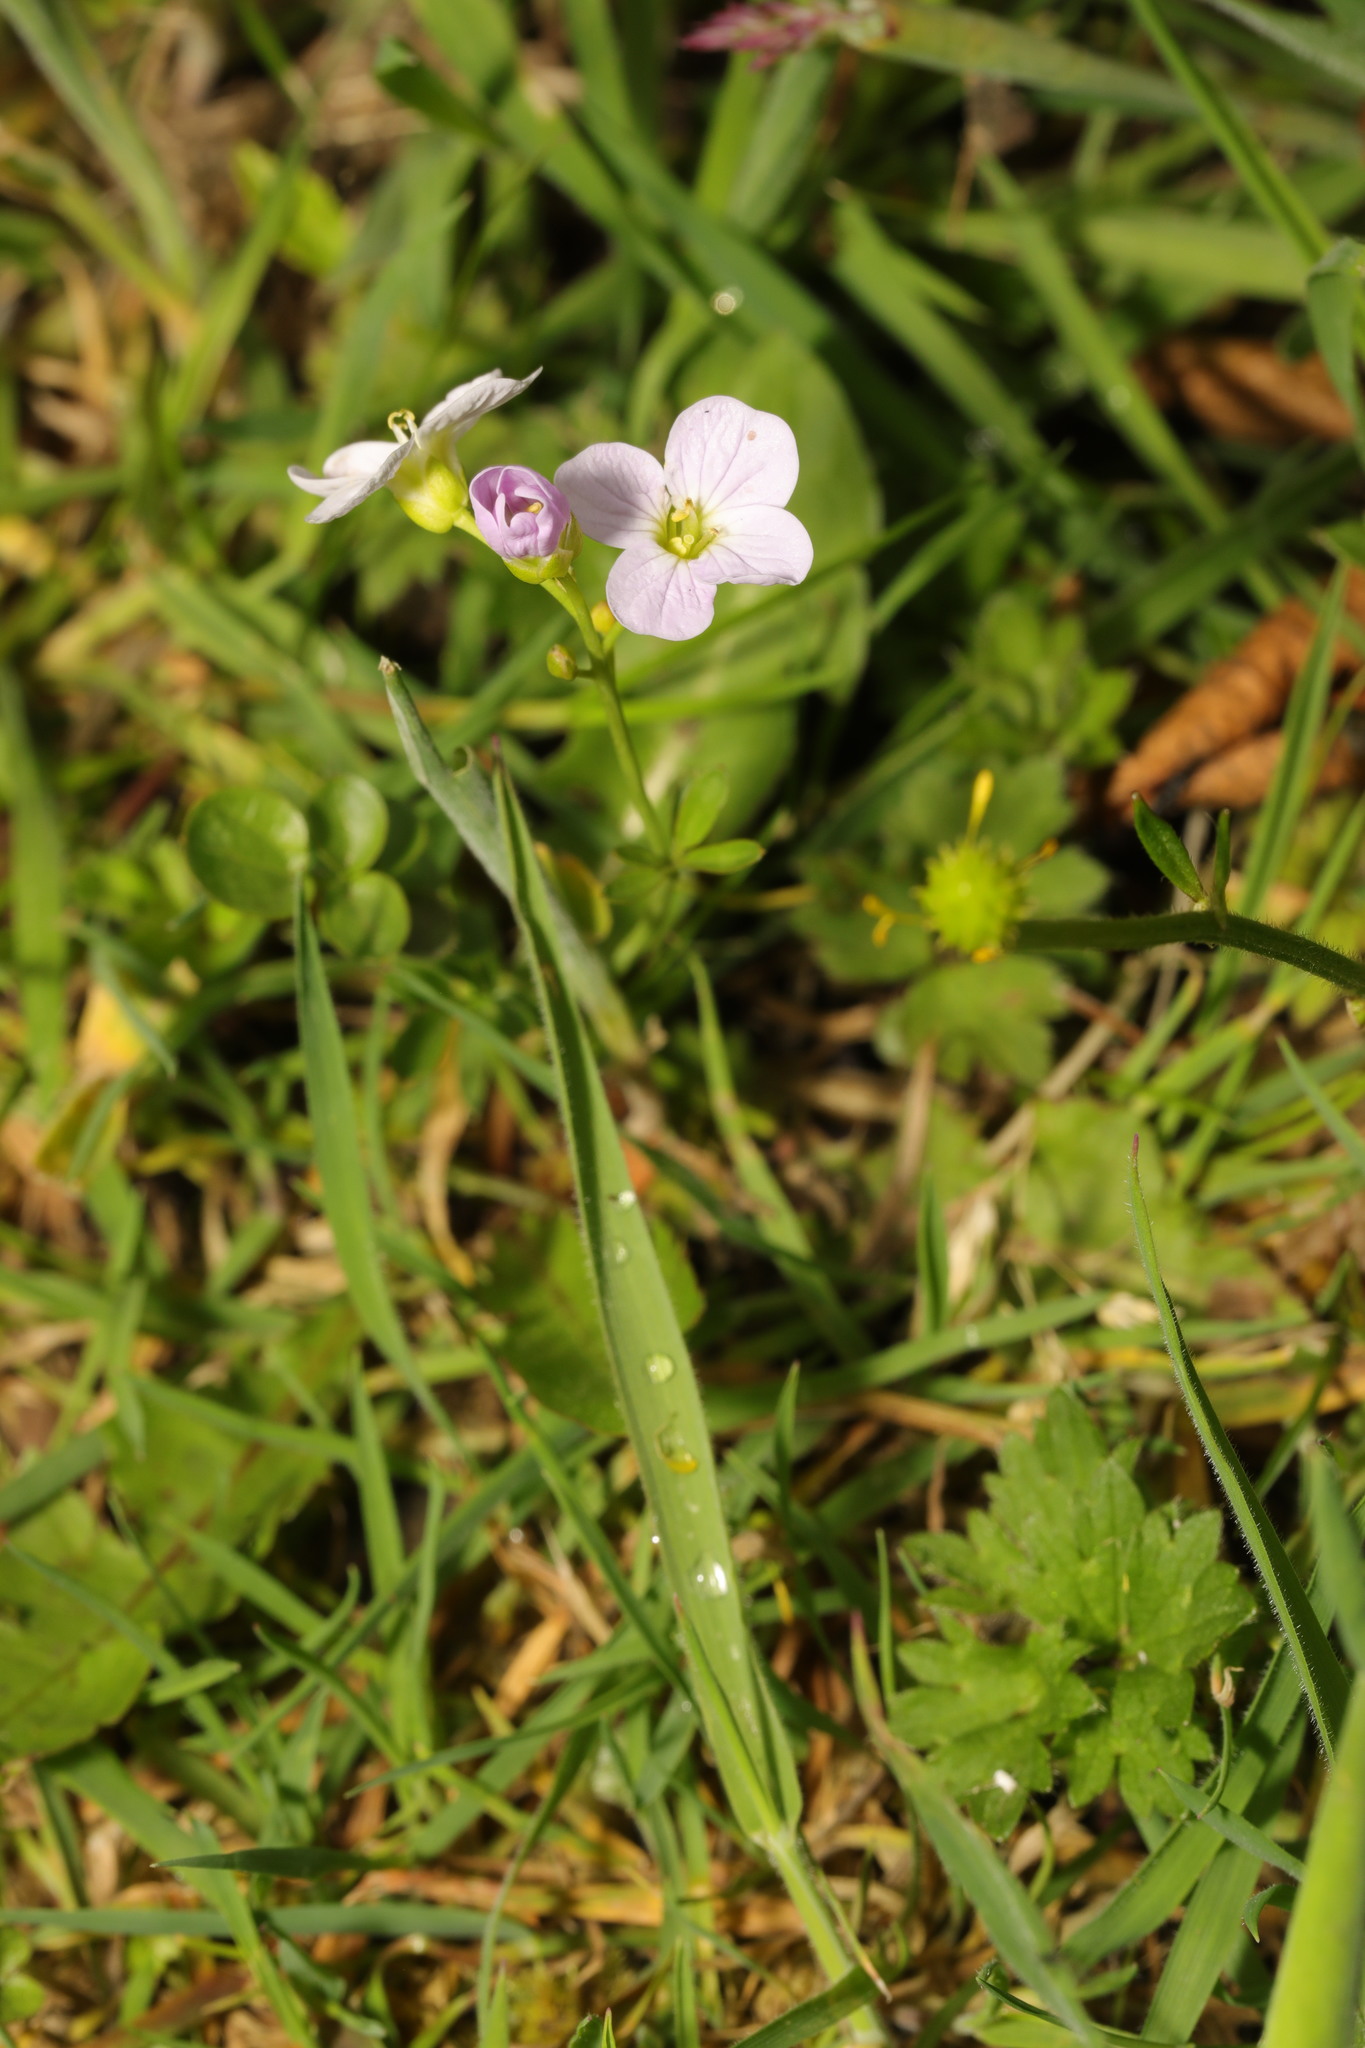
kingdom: Plantae
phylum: Tracheophyta
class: Magnoliopsida
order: Brassicales
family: Brassicaceae
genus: Cardamine
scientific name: Cardamine pratensis
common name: Cuckoo flower
